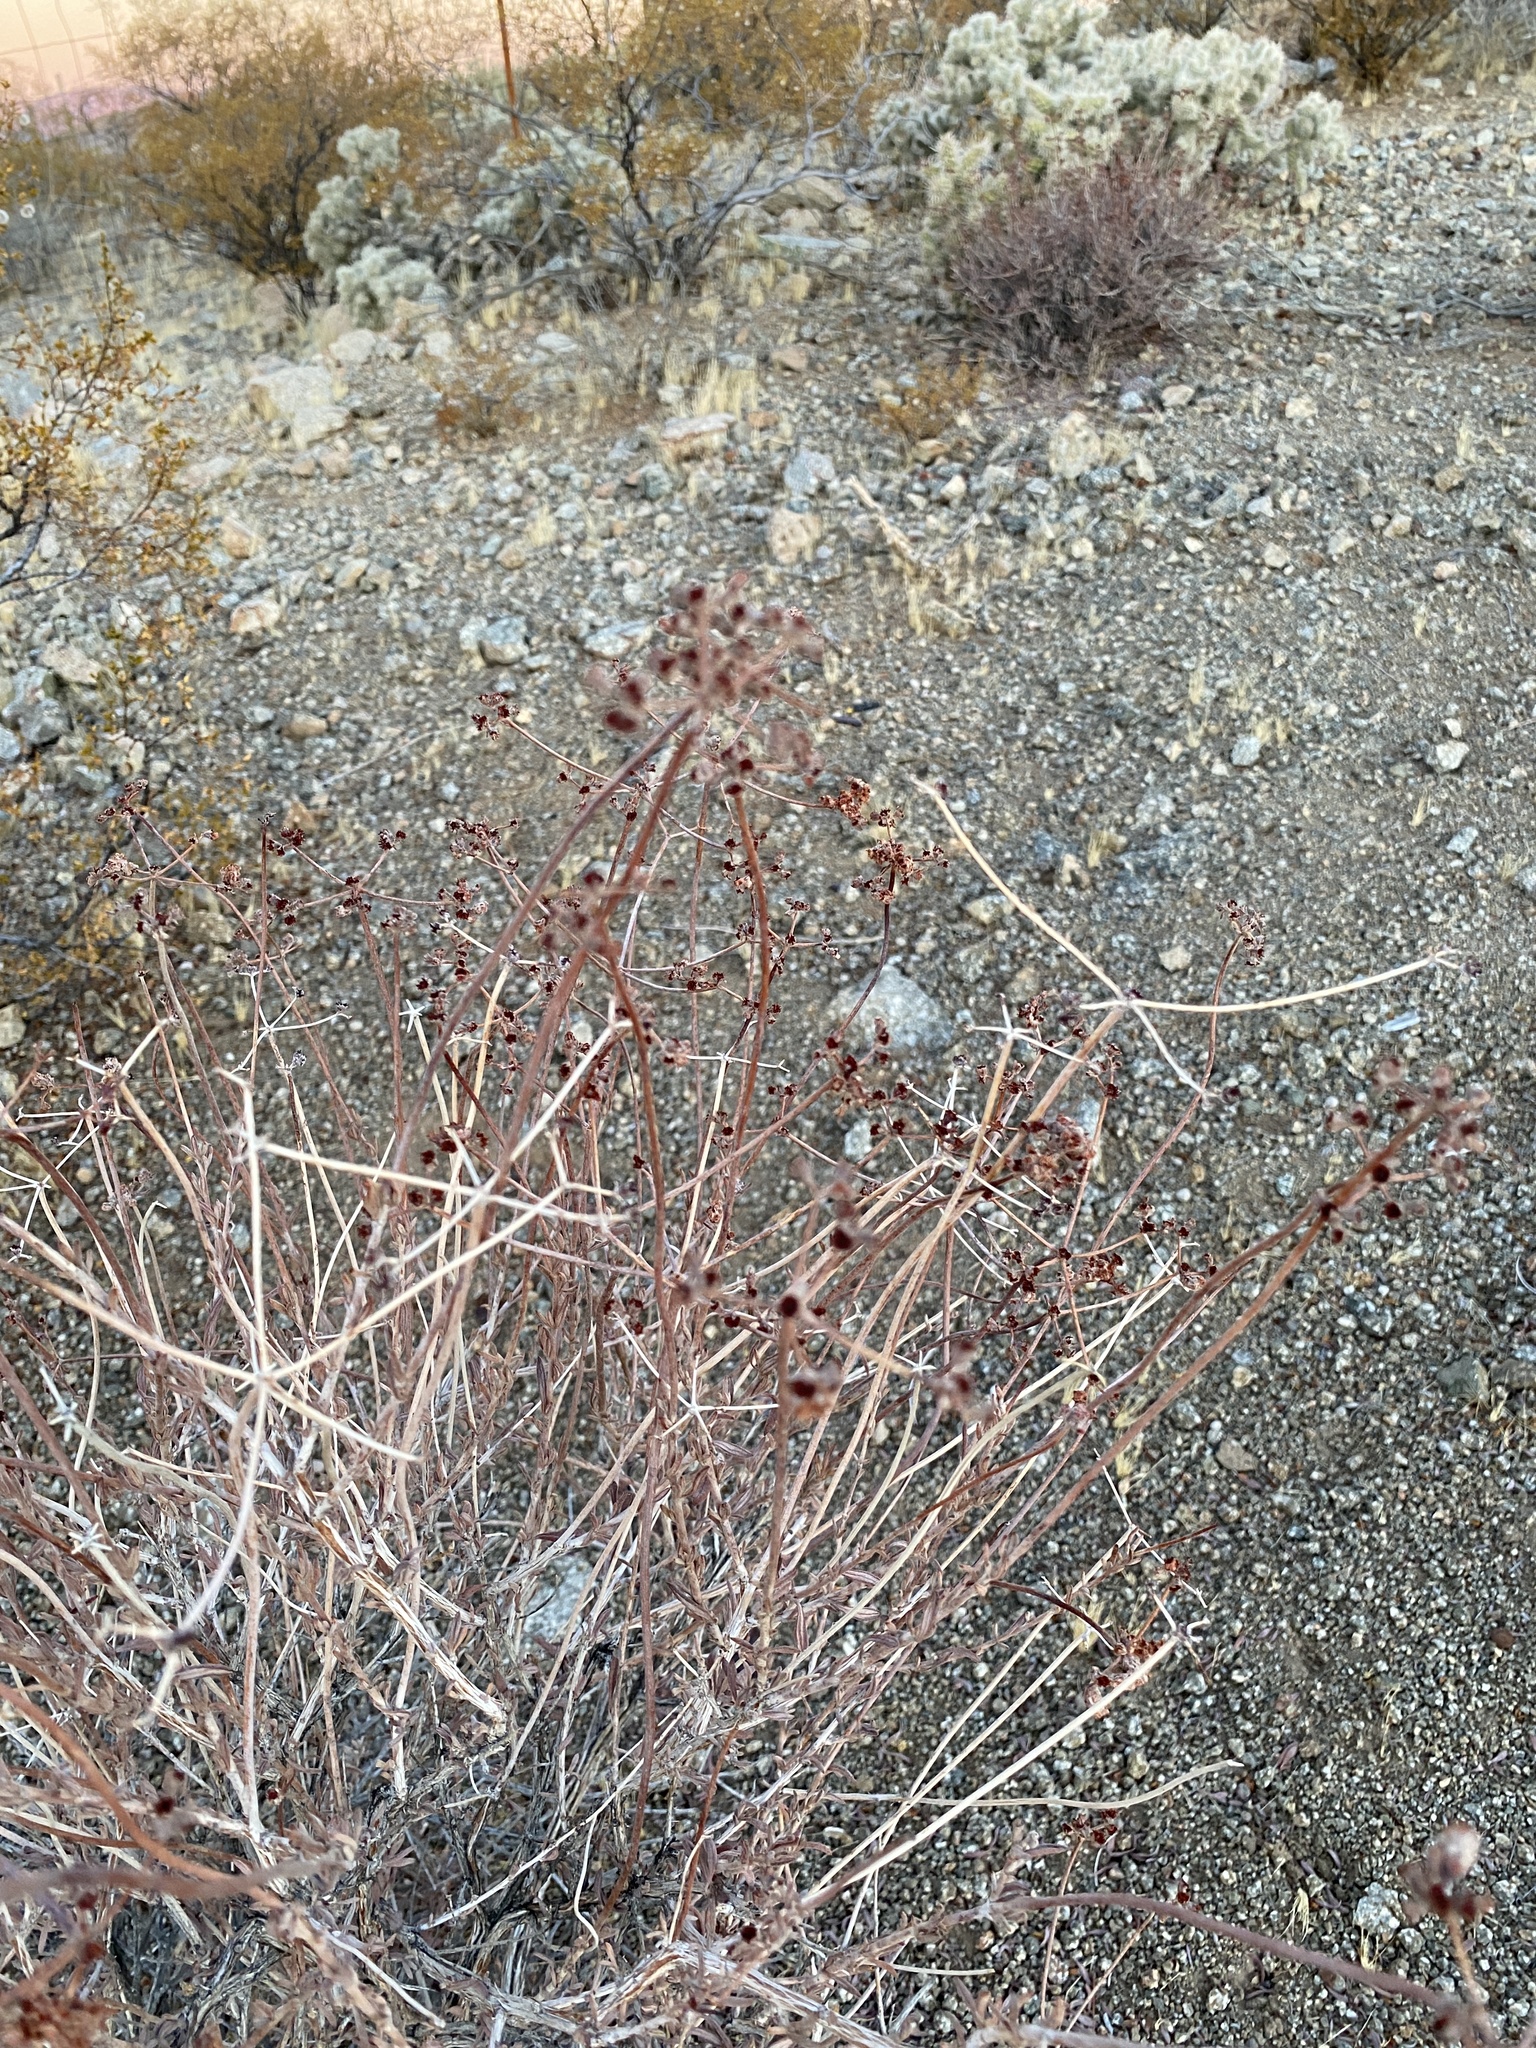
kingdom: Plantae
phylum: Tracheophyta
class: Magnoliopsida
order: Caryophyllales
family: Polygonaceae
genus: Eriogonum
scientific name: Eriogonum fasciculatum
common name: California wild buckwheat
